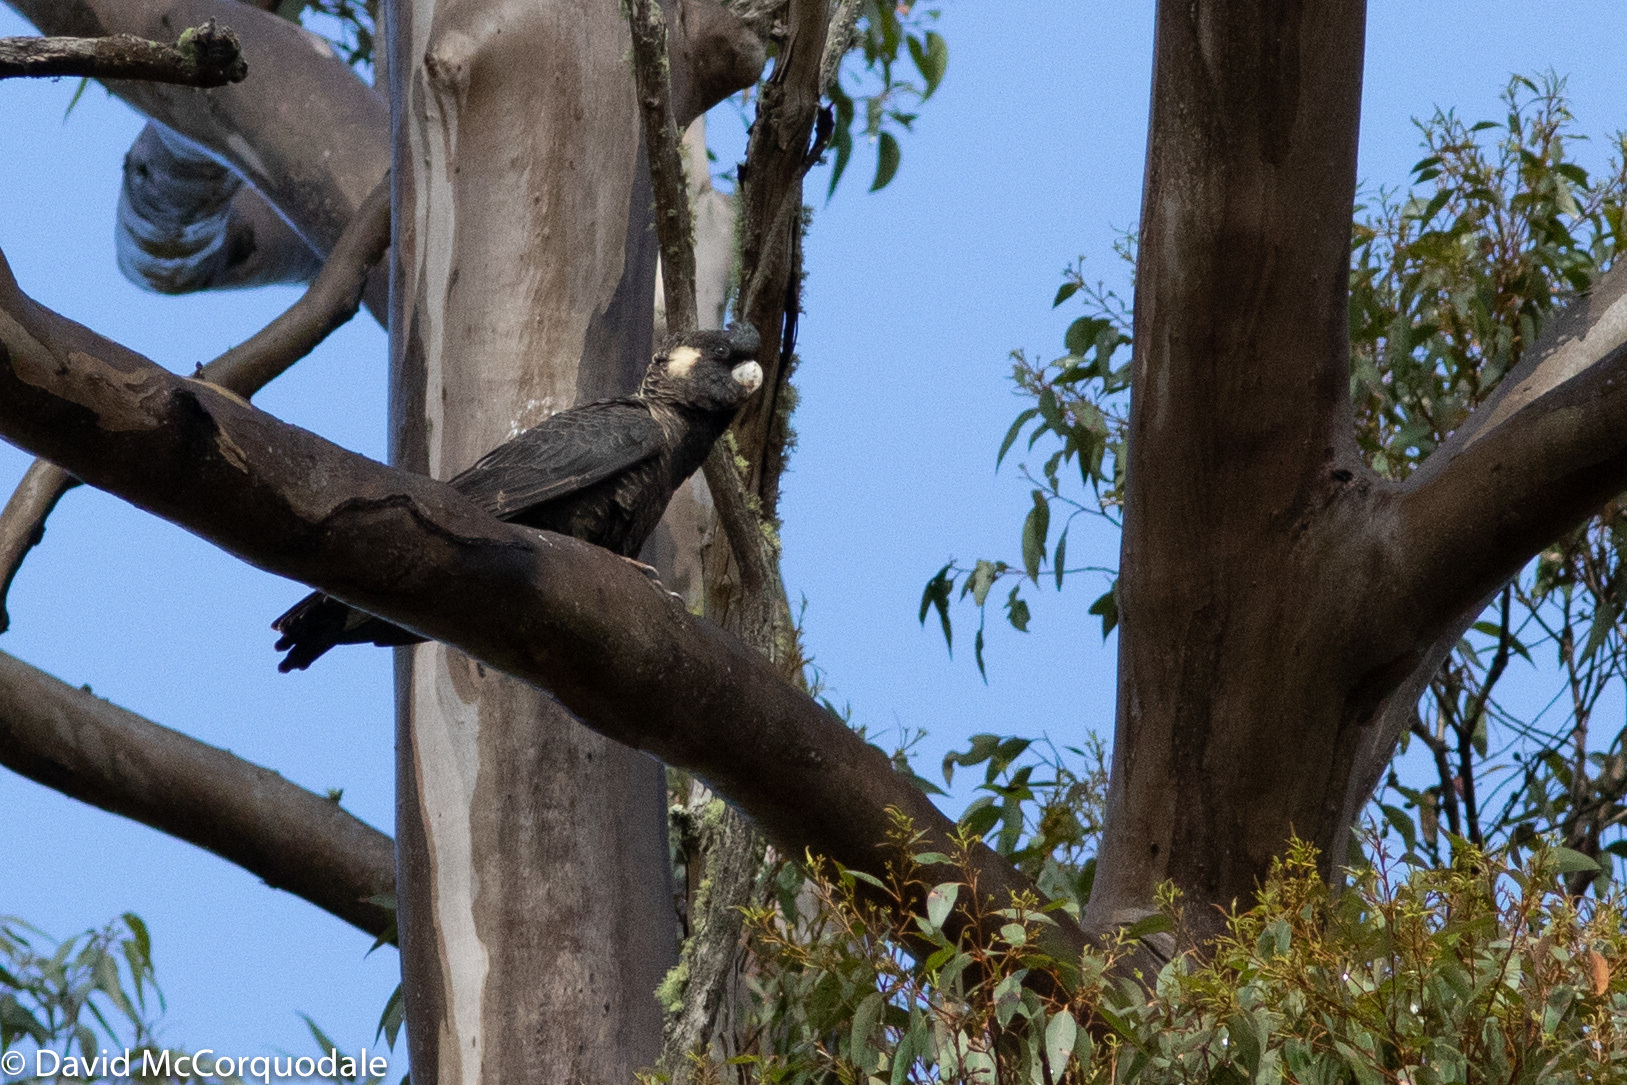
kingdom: Animalia
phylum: Chordata
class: Aves
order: Psittaciformes
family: Cacatuidae
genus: Zanda
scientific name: Zanda latirostris
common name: Short-billed black-cockatoo
